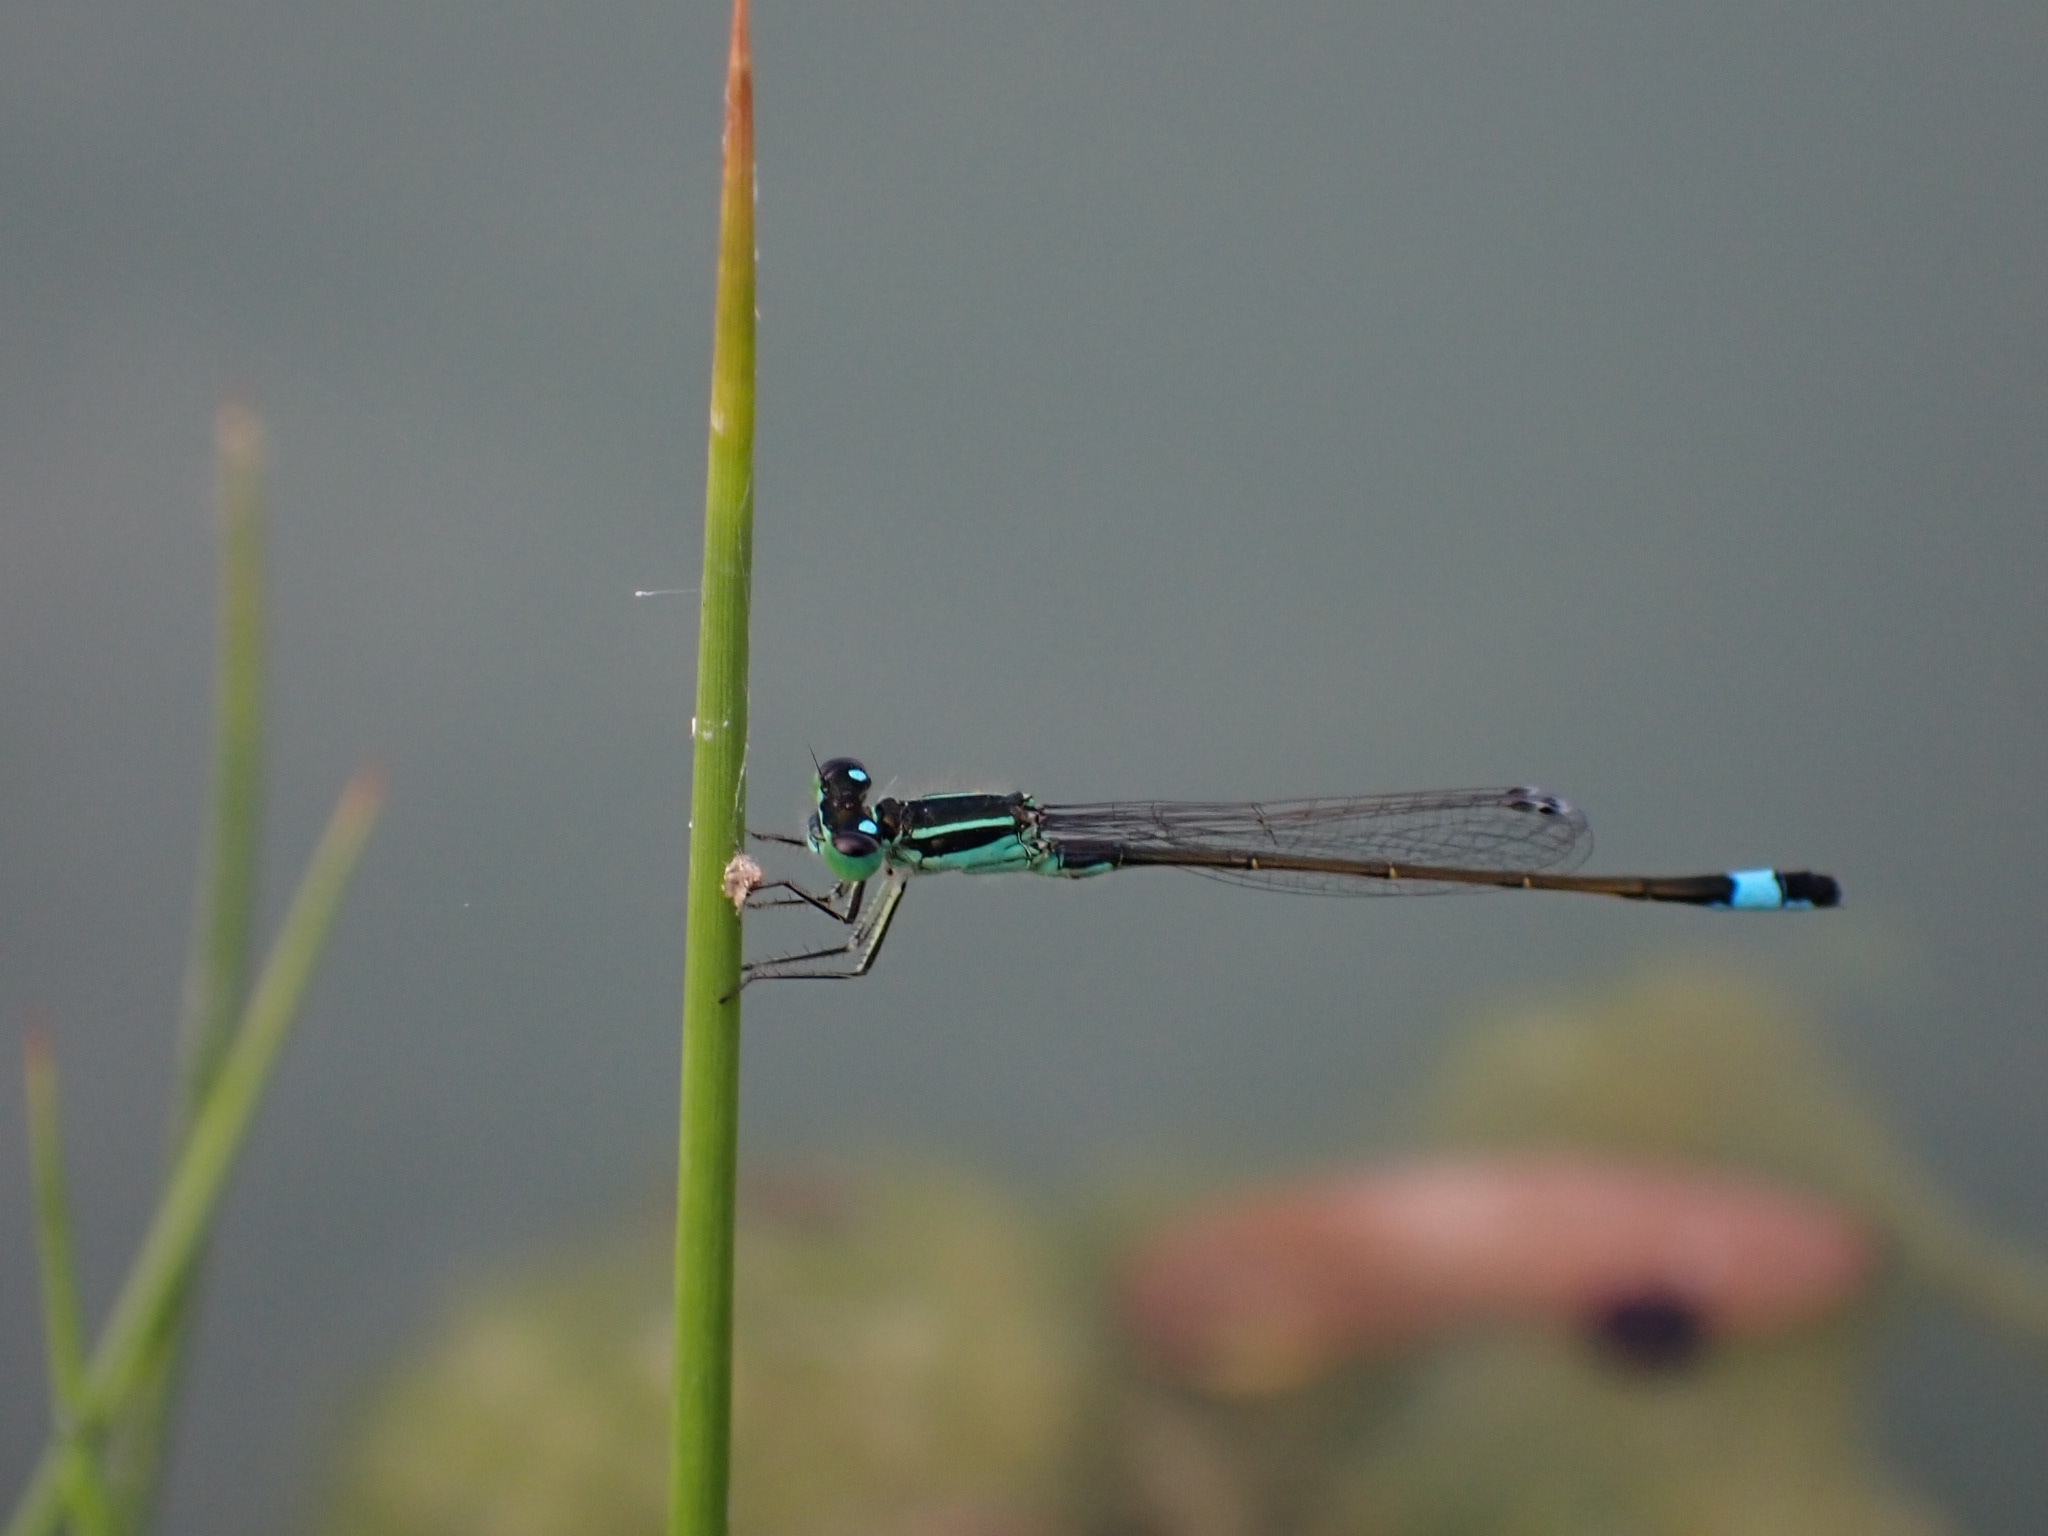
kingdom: Animalia
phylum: Arthropoda
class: Insecta
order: Odonata
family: Coenagrionidae
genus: Ischnura
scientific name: Ischnura elegans
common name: Blue-tailed damselfly
